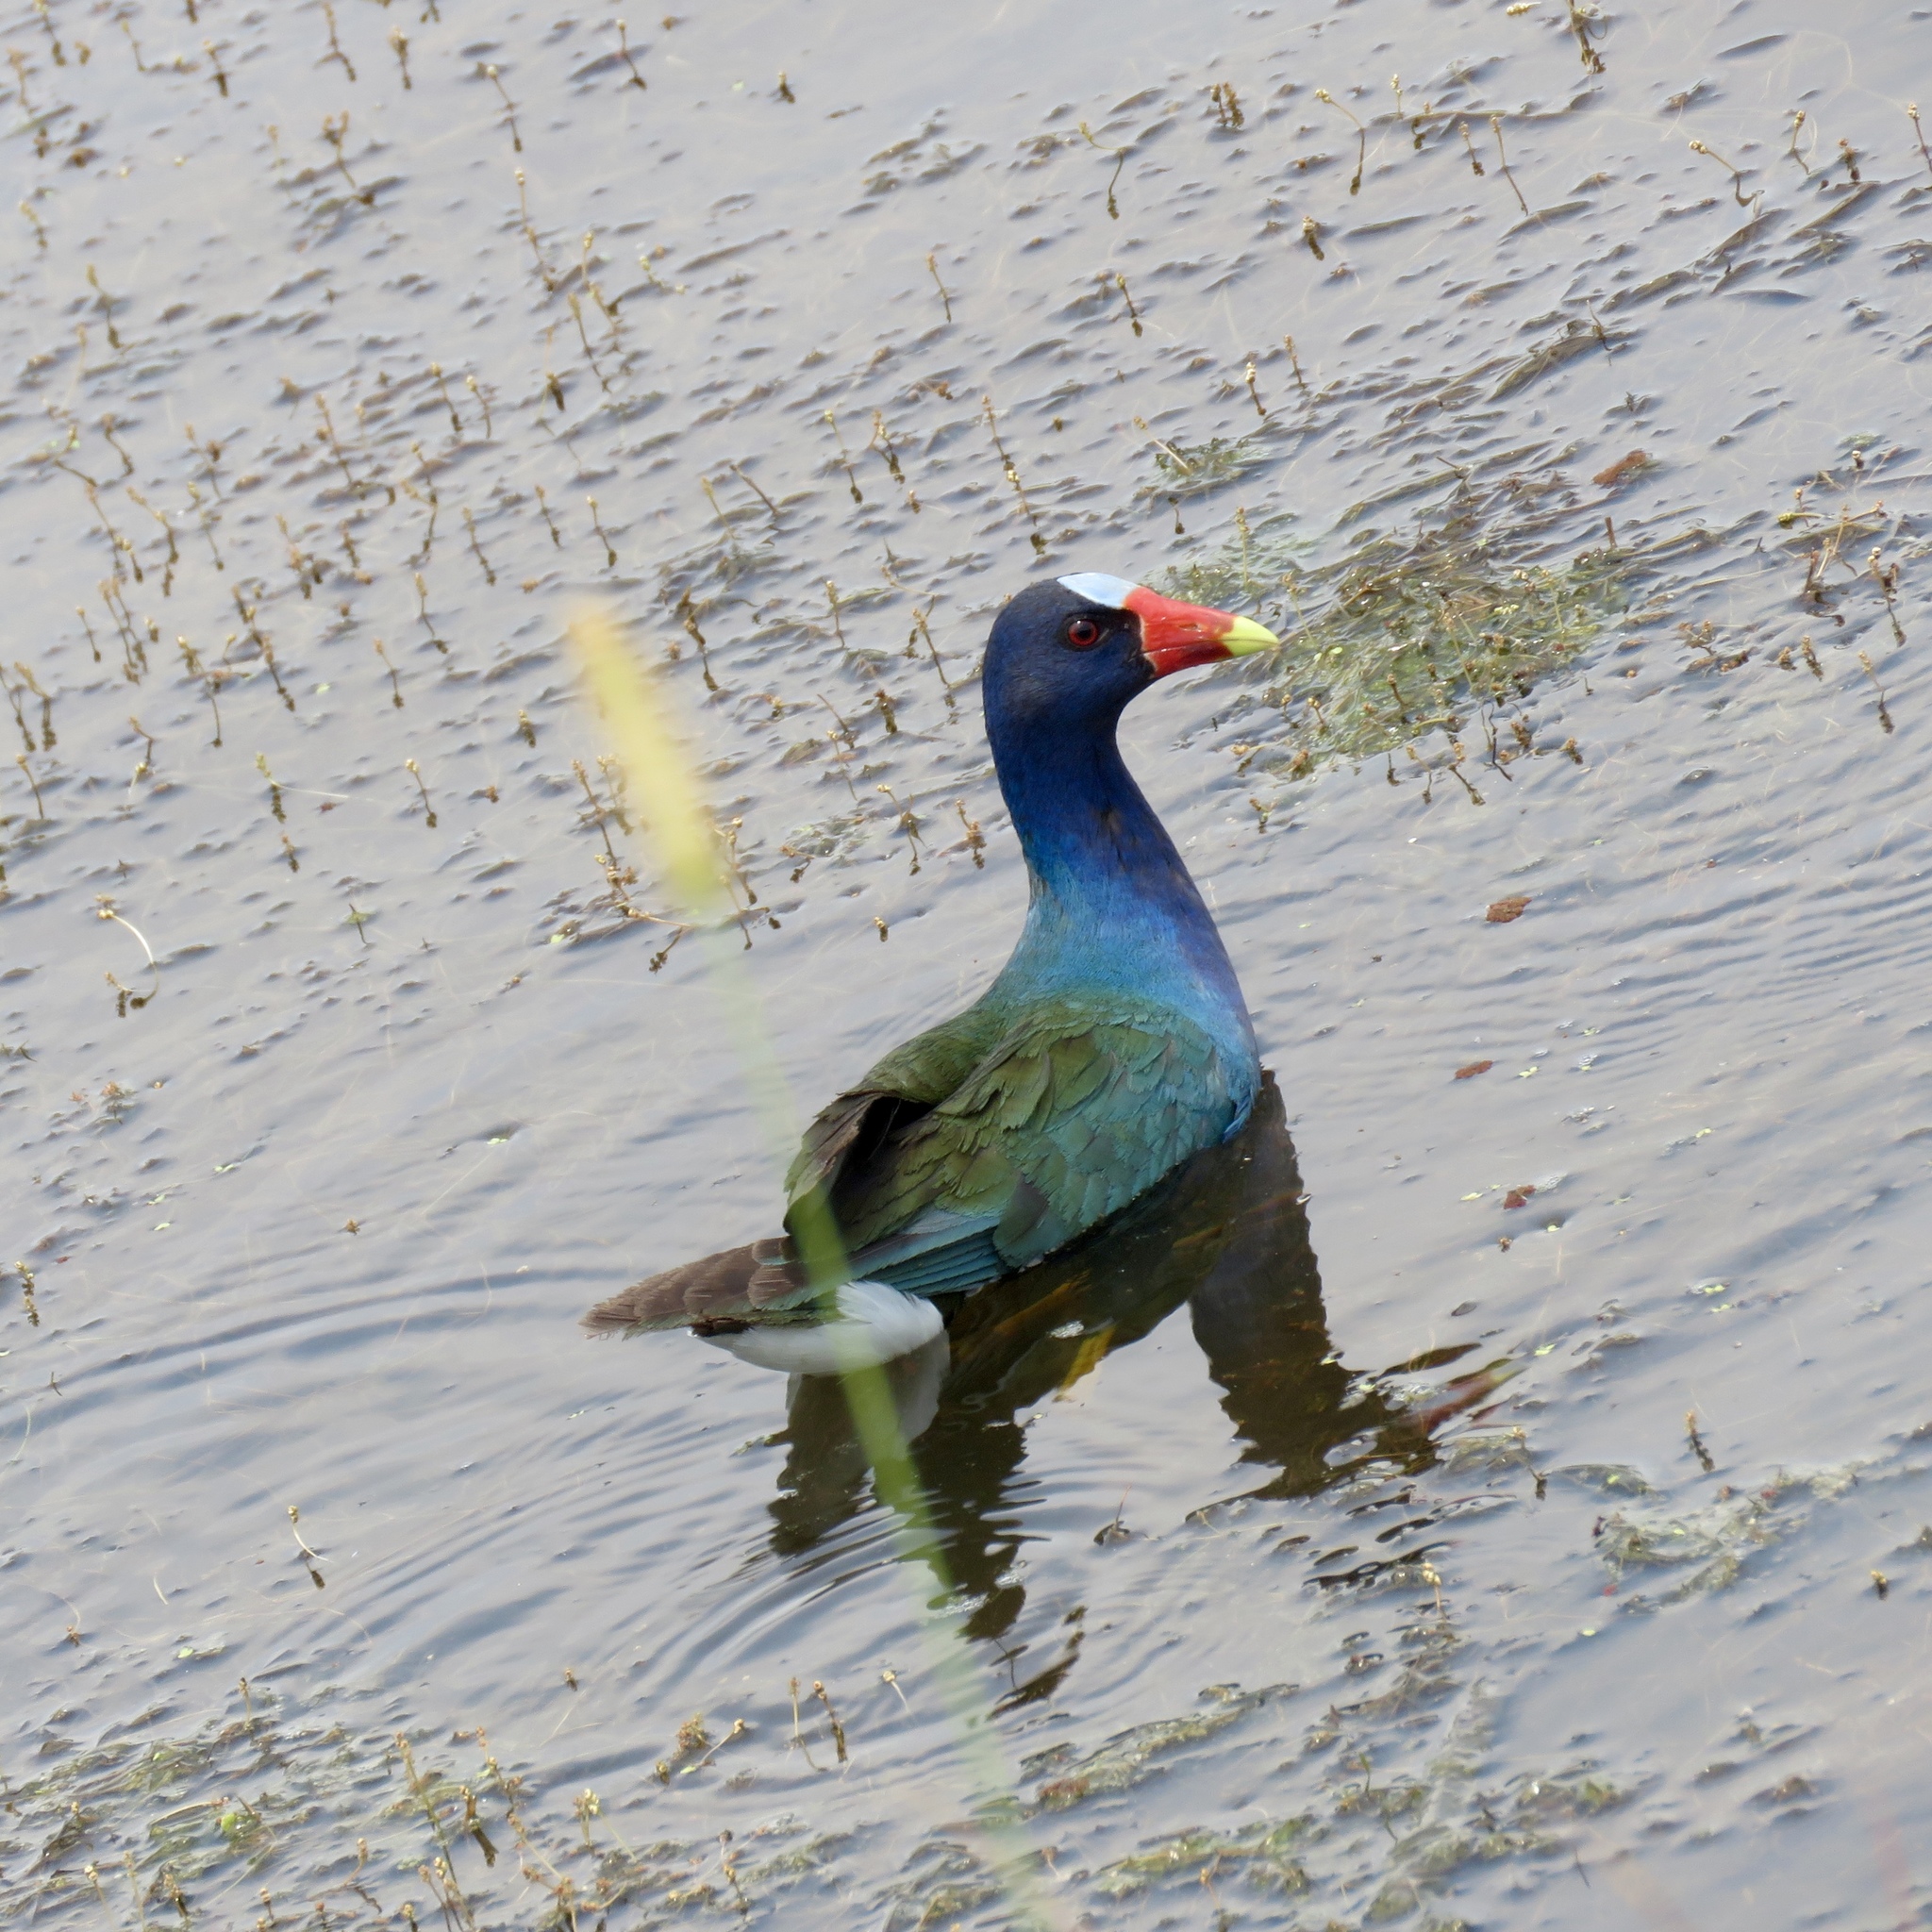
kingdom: Animalia
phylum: Chordata
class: Aves
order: Gruiformes
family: Rallidae
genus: Porphyrio
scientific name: Porphyrio martinica
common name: Purple gallinule
